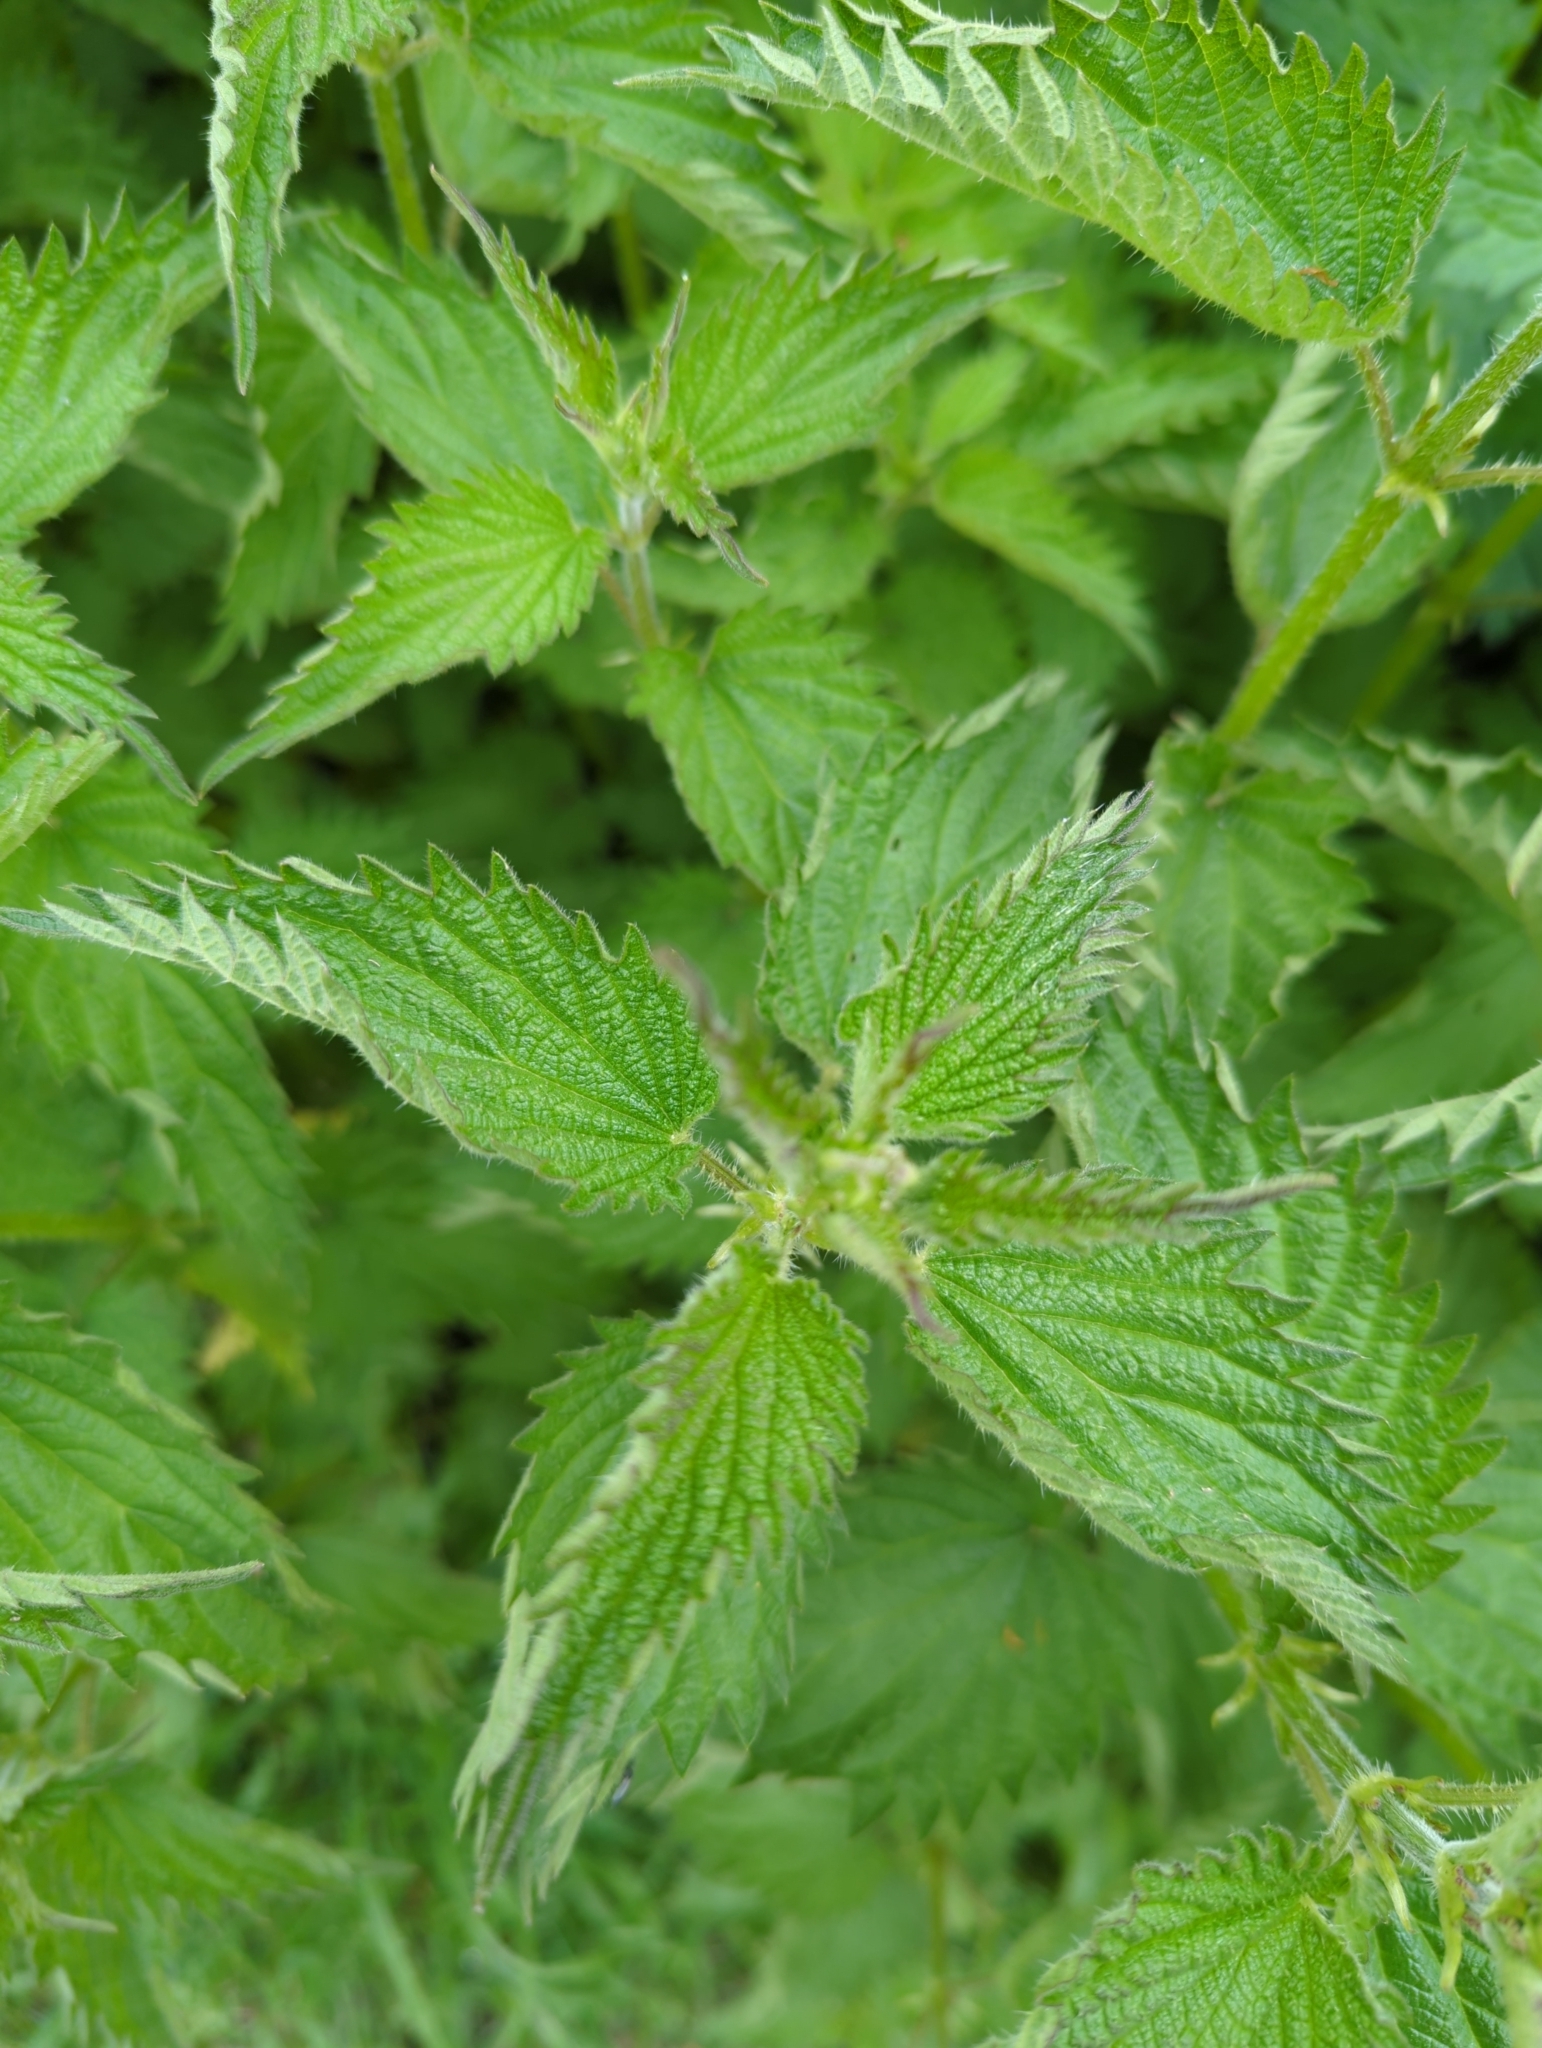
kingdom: Plantae
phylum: Tracheophyta
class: Magnoliopsida
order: Rosales
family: Urticaceae
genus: Urtica
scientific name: Urtica dioica
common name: Common nettle
